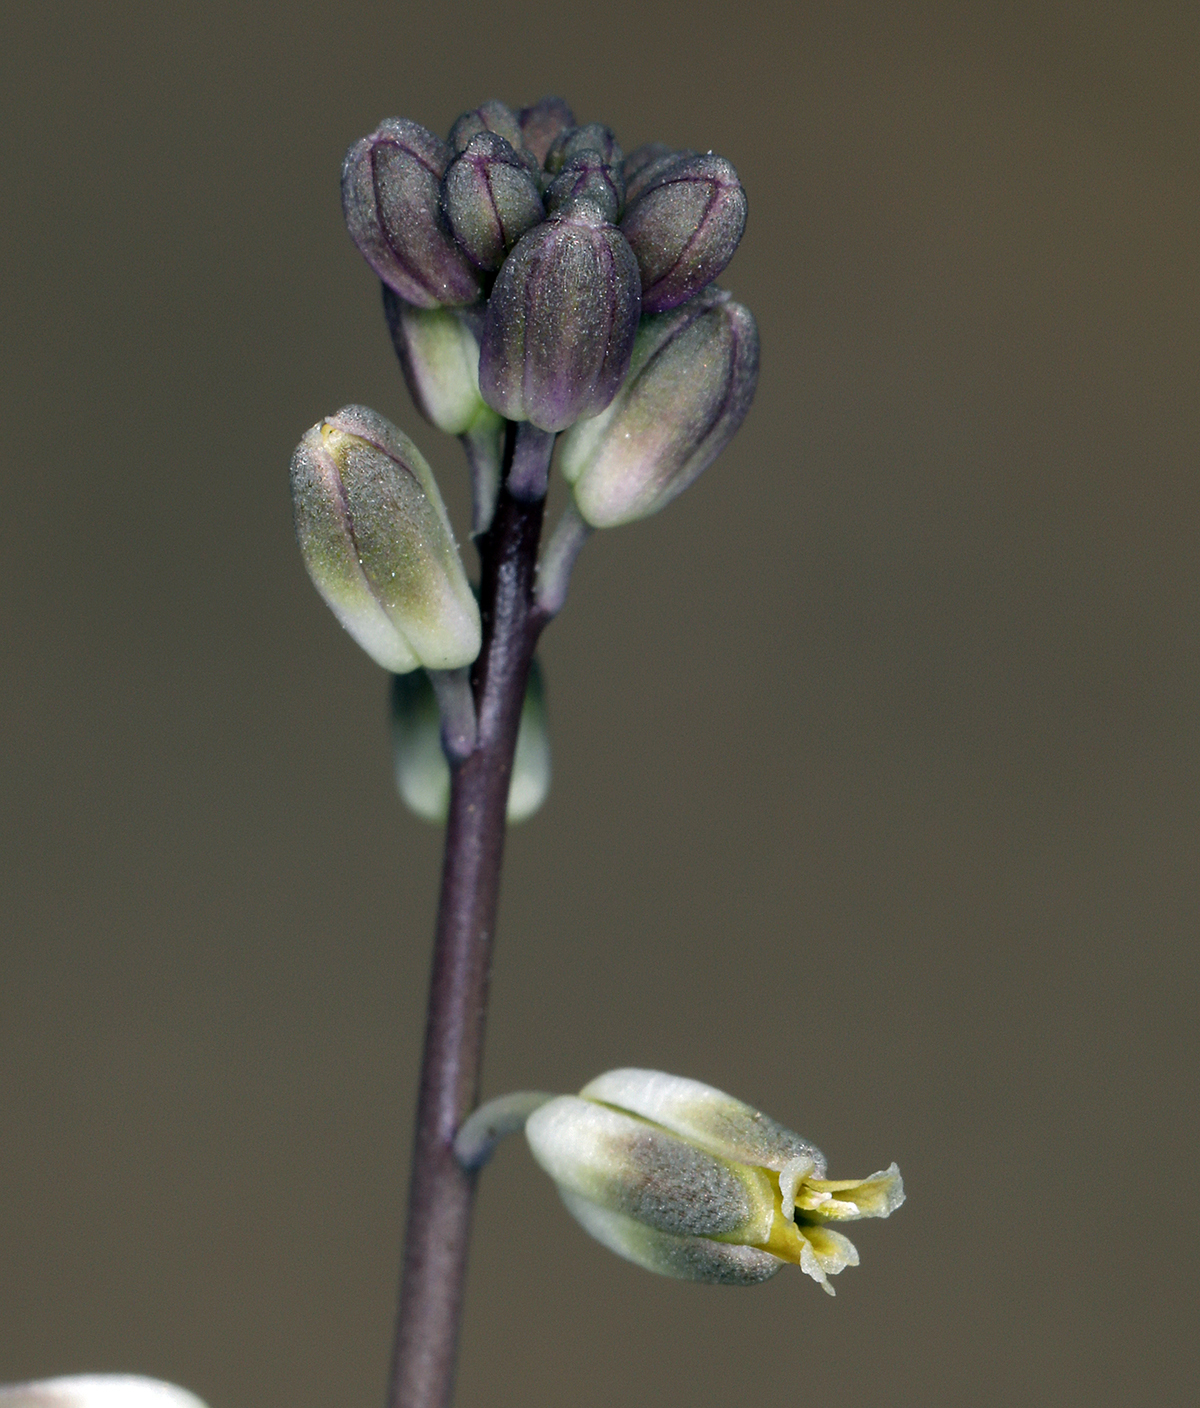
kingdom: Plantae
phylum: Tracheophyta
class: Magnoliopsida
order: Brassicales
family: Brassicaceae
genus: Streptanthus
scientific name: Streptanthus longirostris
